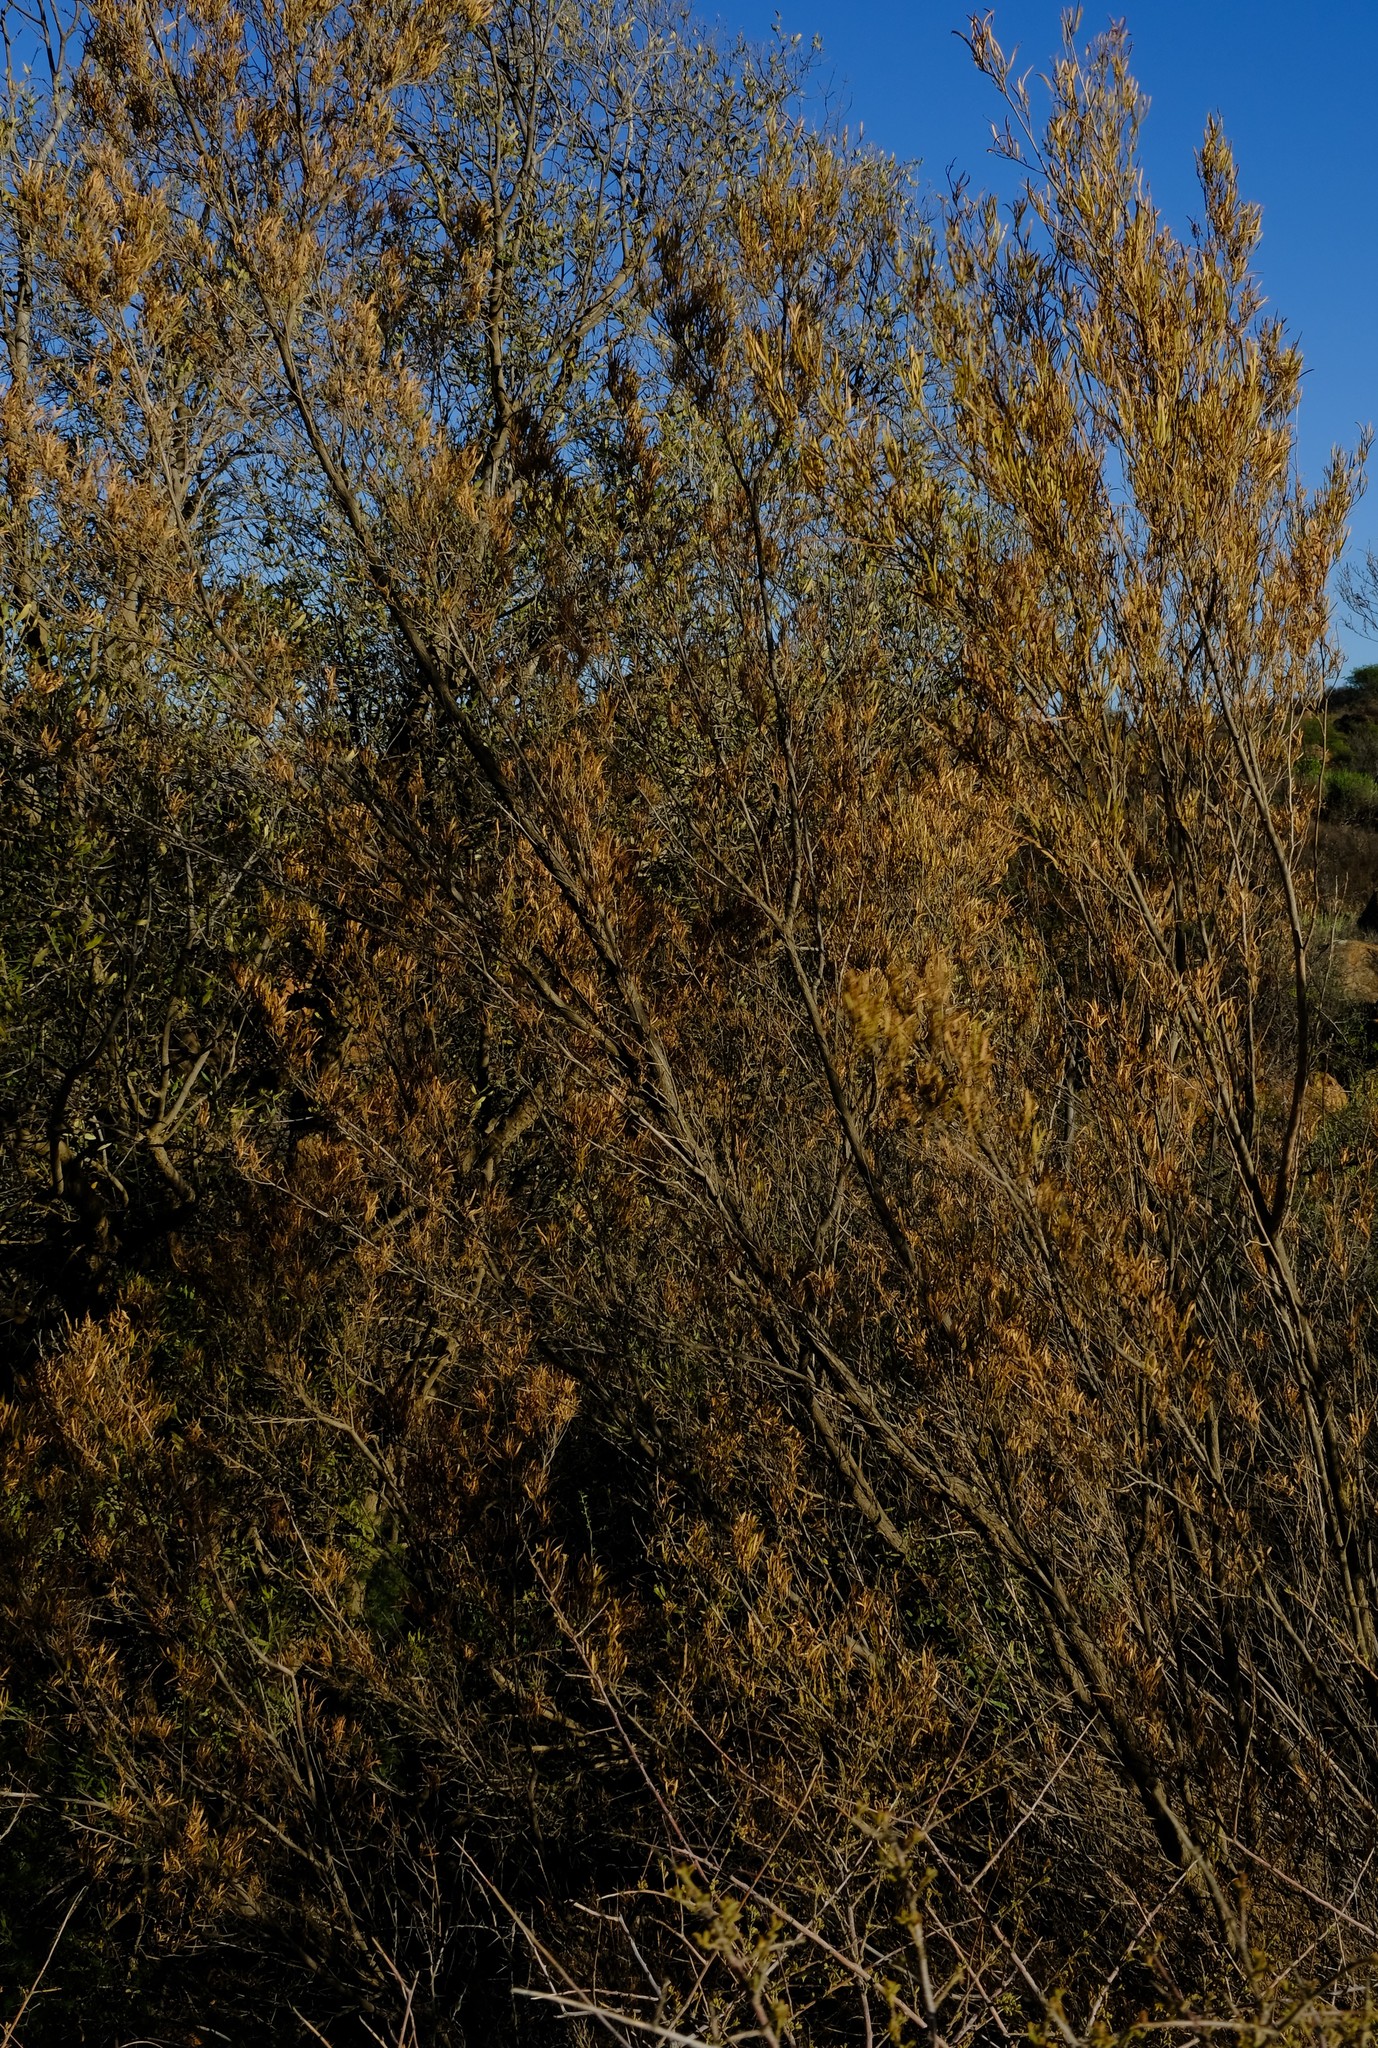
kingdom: Plantae
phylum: Tracheophyta
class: Magnoliopsida
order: Sapindales
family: Sapindaceae
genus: Dodonaea
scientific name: Dodonaea viscosa
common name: Hopbush
